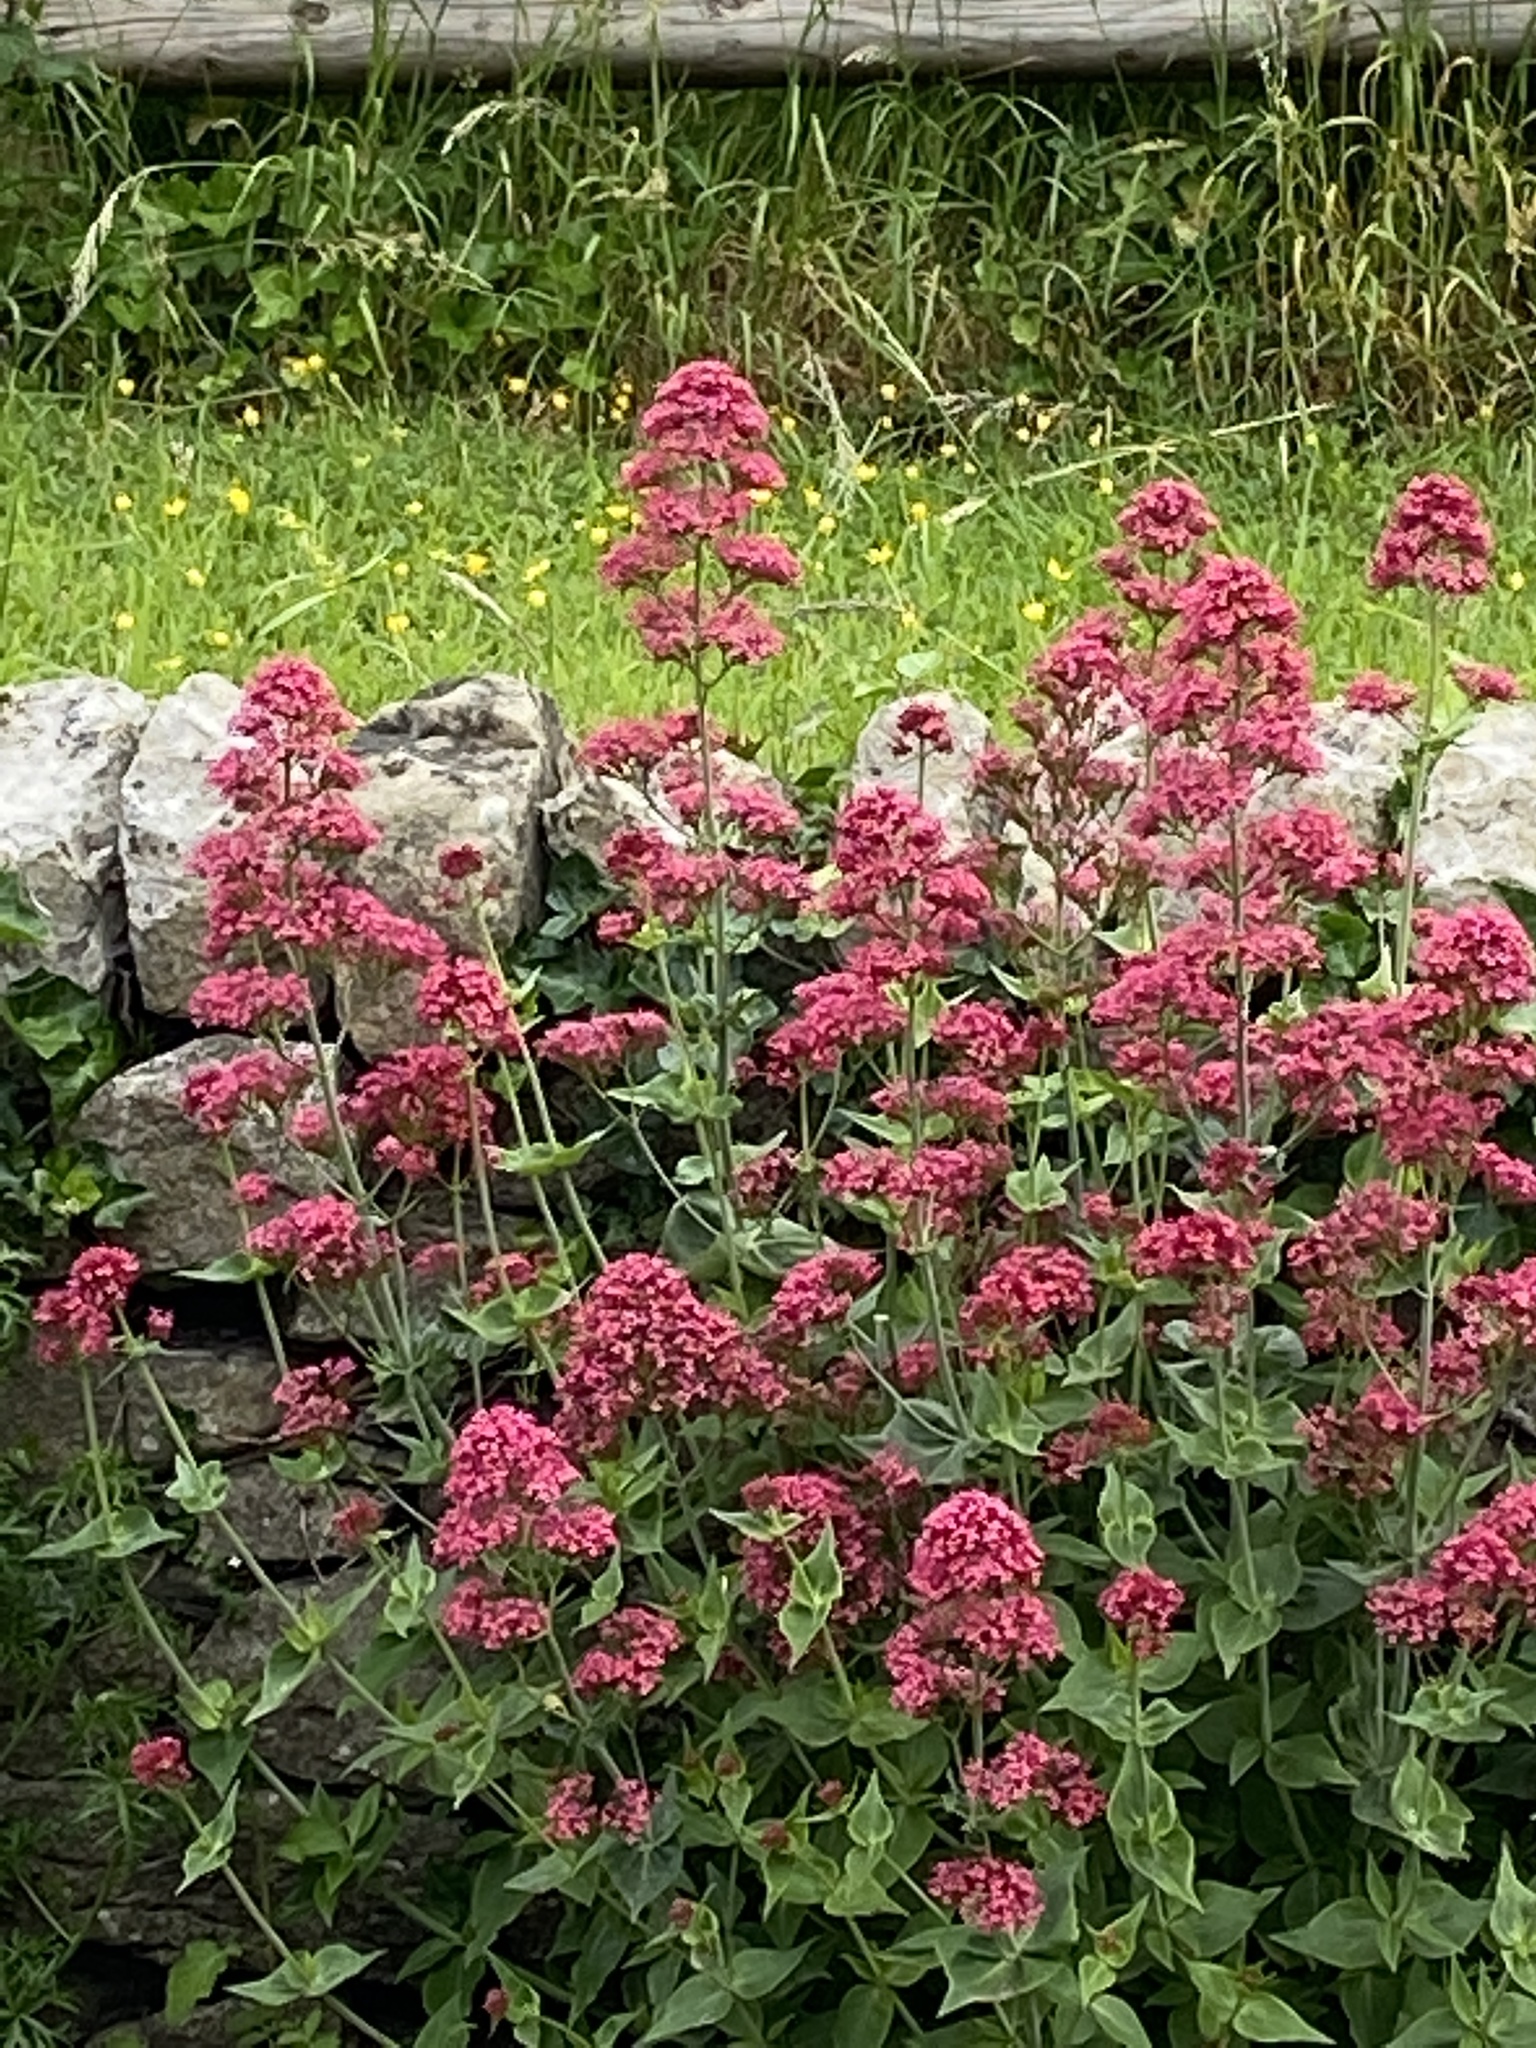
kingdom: Plantae
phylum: Tracheophyta
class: Magnoliopsida
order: Dipsacales
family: Caprifoliaceae
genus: Centranthus
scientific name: Centranthus ruber
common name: Red valerian
